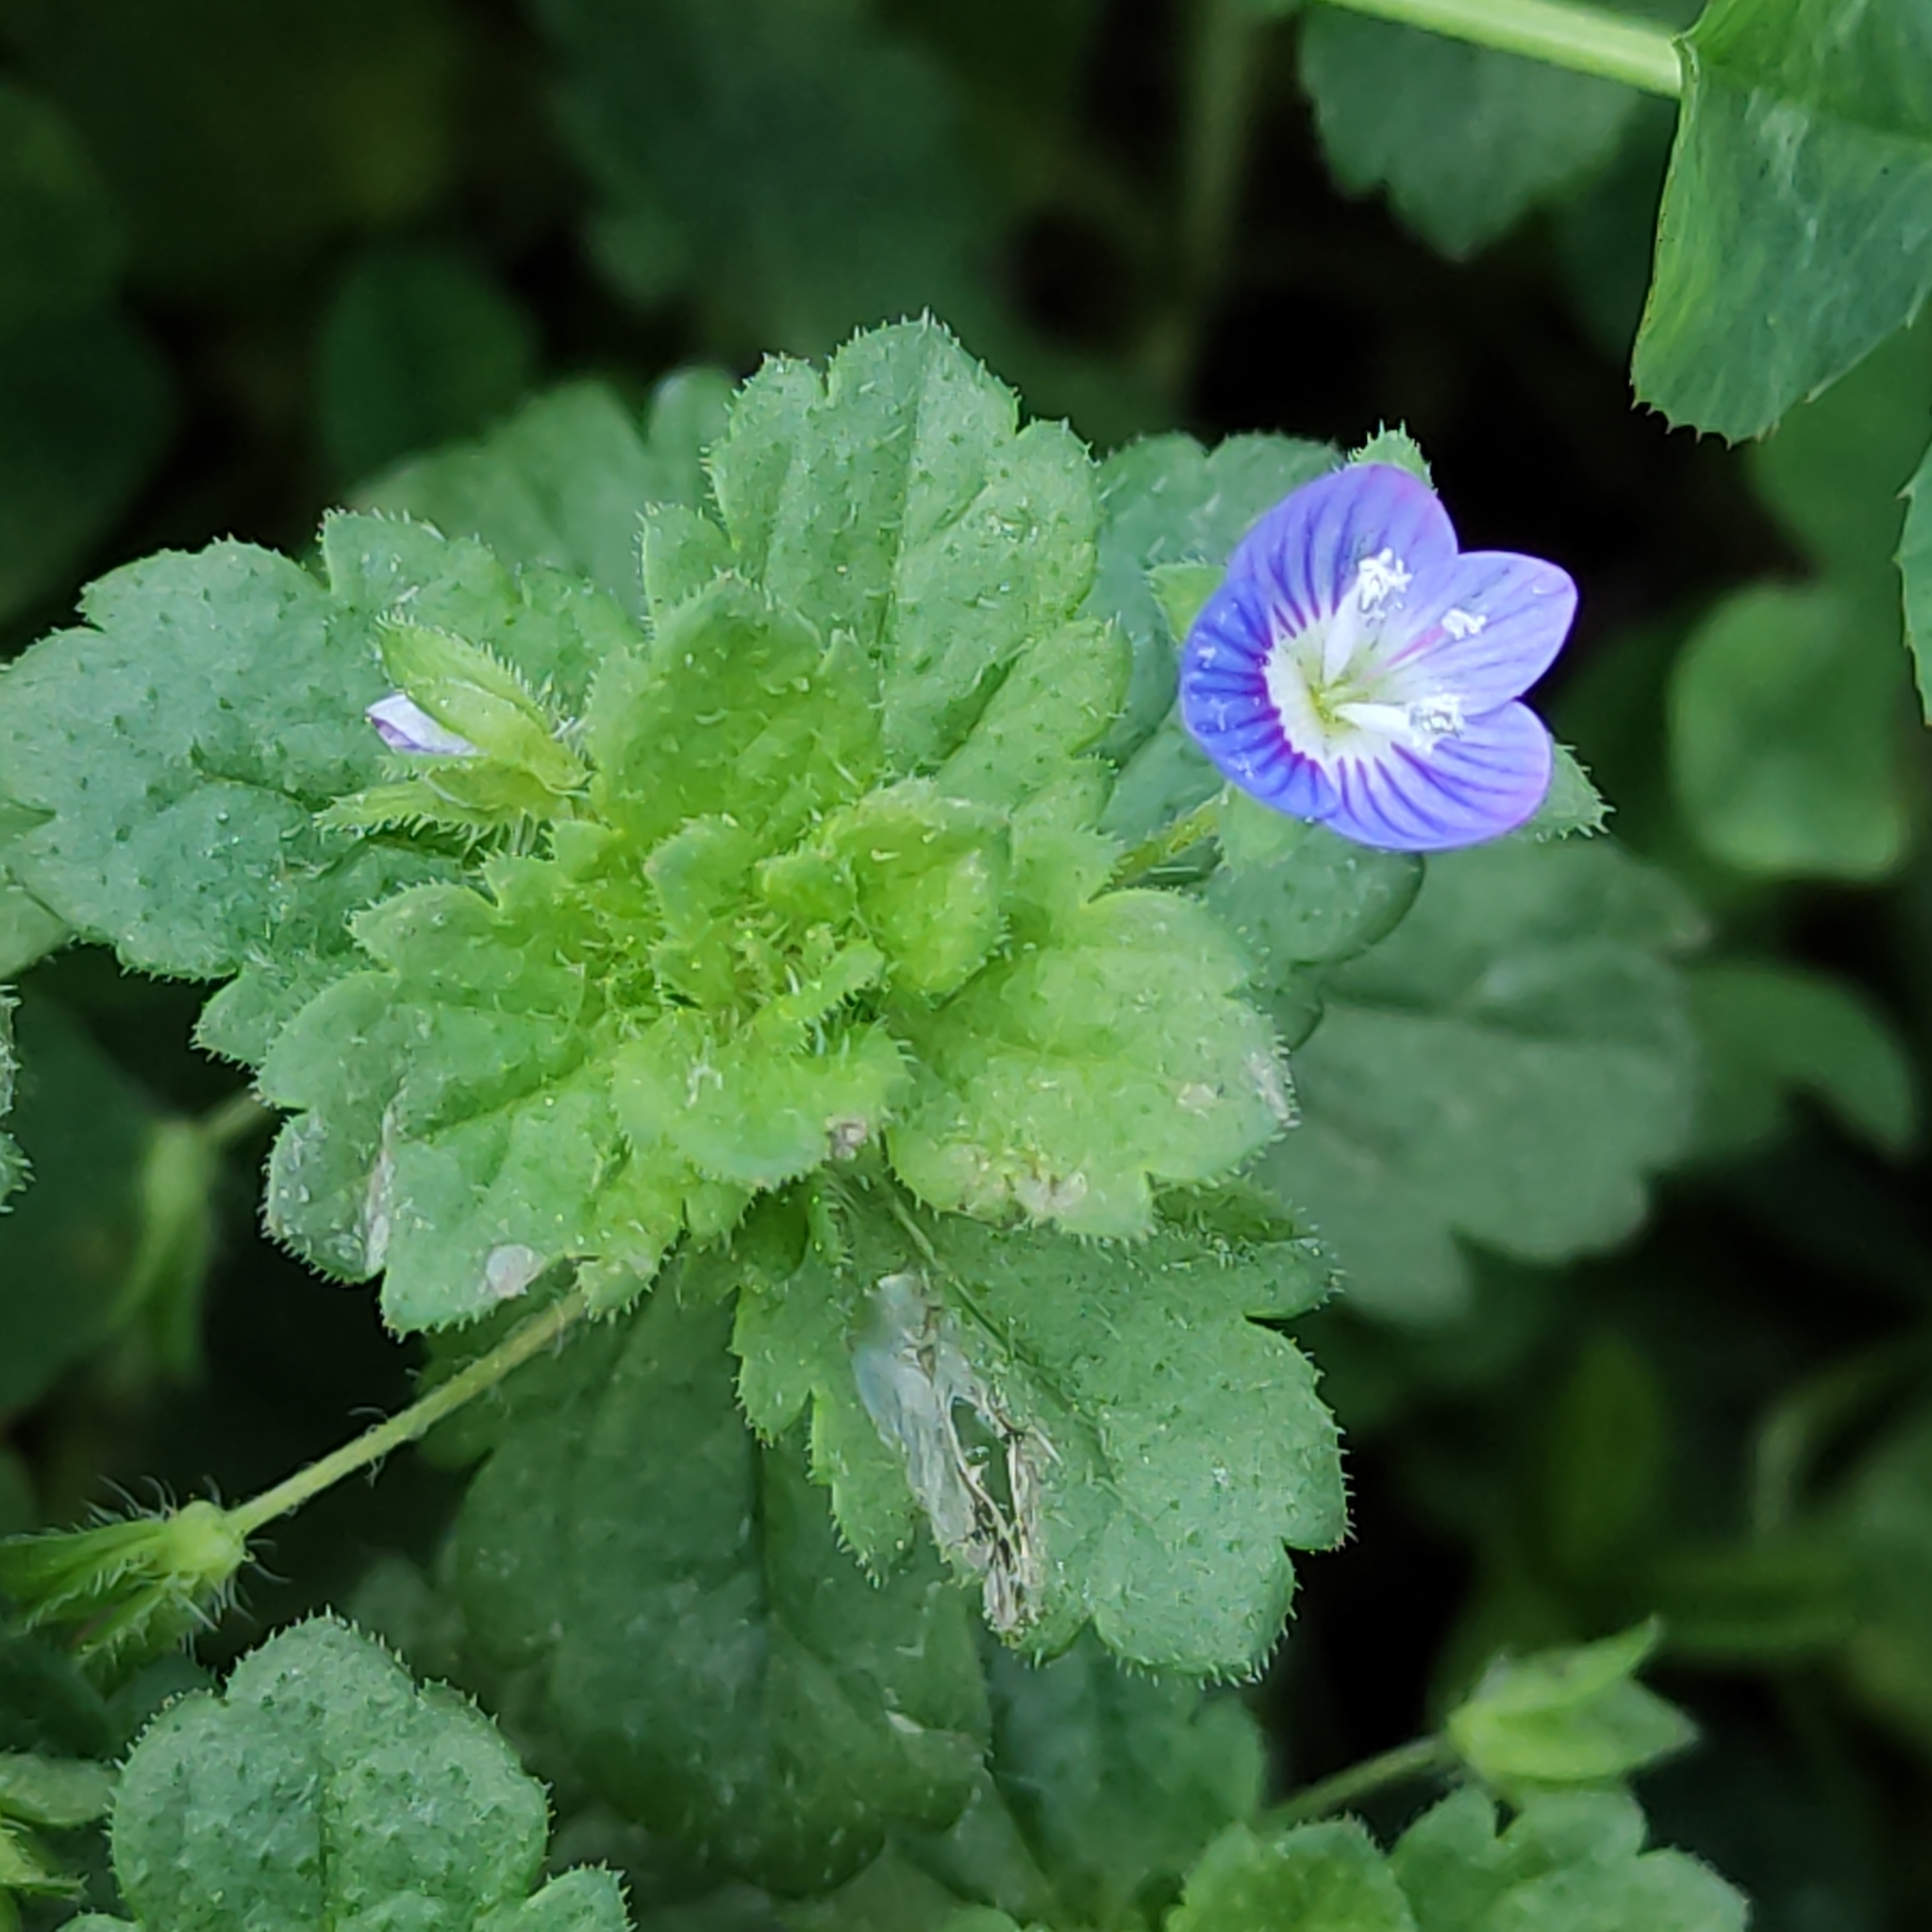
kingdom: Plantae
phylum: Tracheophyta
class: Magnoliopsida
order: Lamiales
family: Plantaginaceae
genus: Veronica
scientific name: Veronica persica
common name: Common field-speedwell
